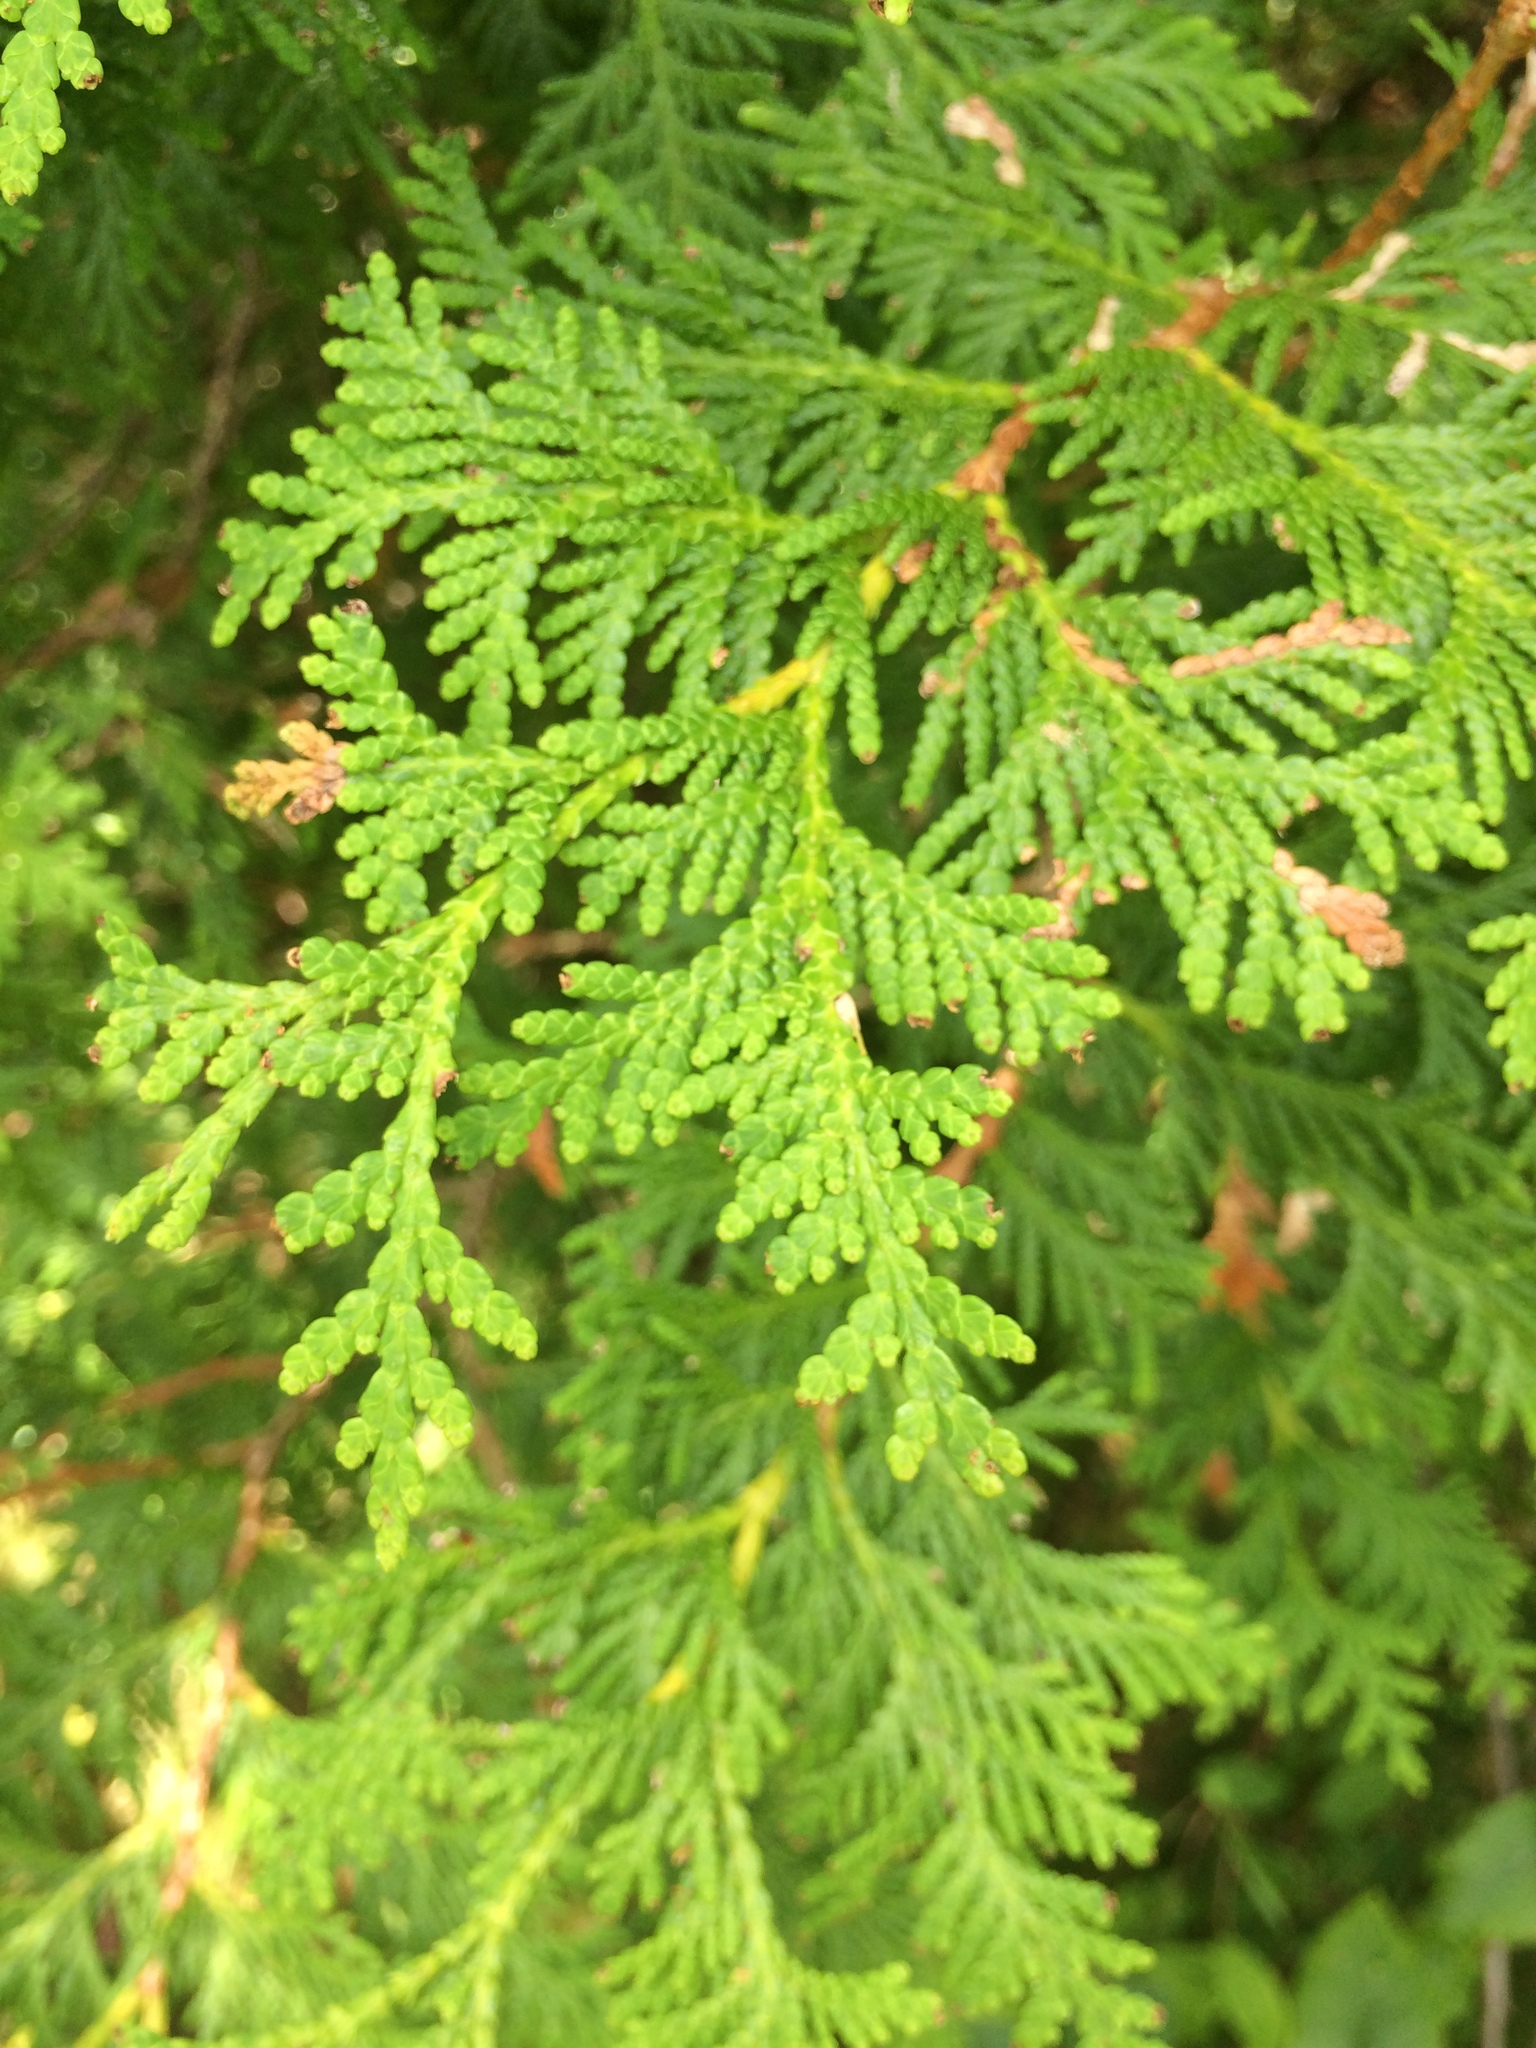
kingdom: Plantae
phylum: Tracheophyta
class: Pinopsida
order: Pinales
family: Cupressaceae
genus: Thuja
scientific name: Thuja occidentalis
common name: Northern white-cedar
